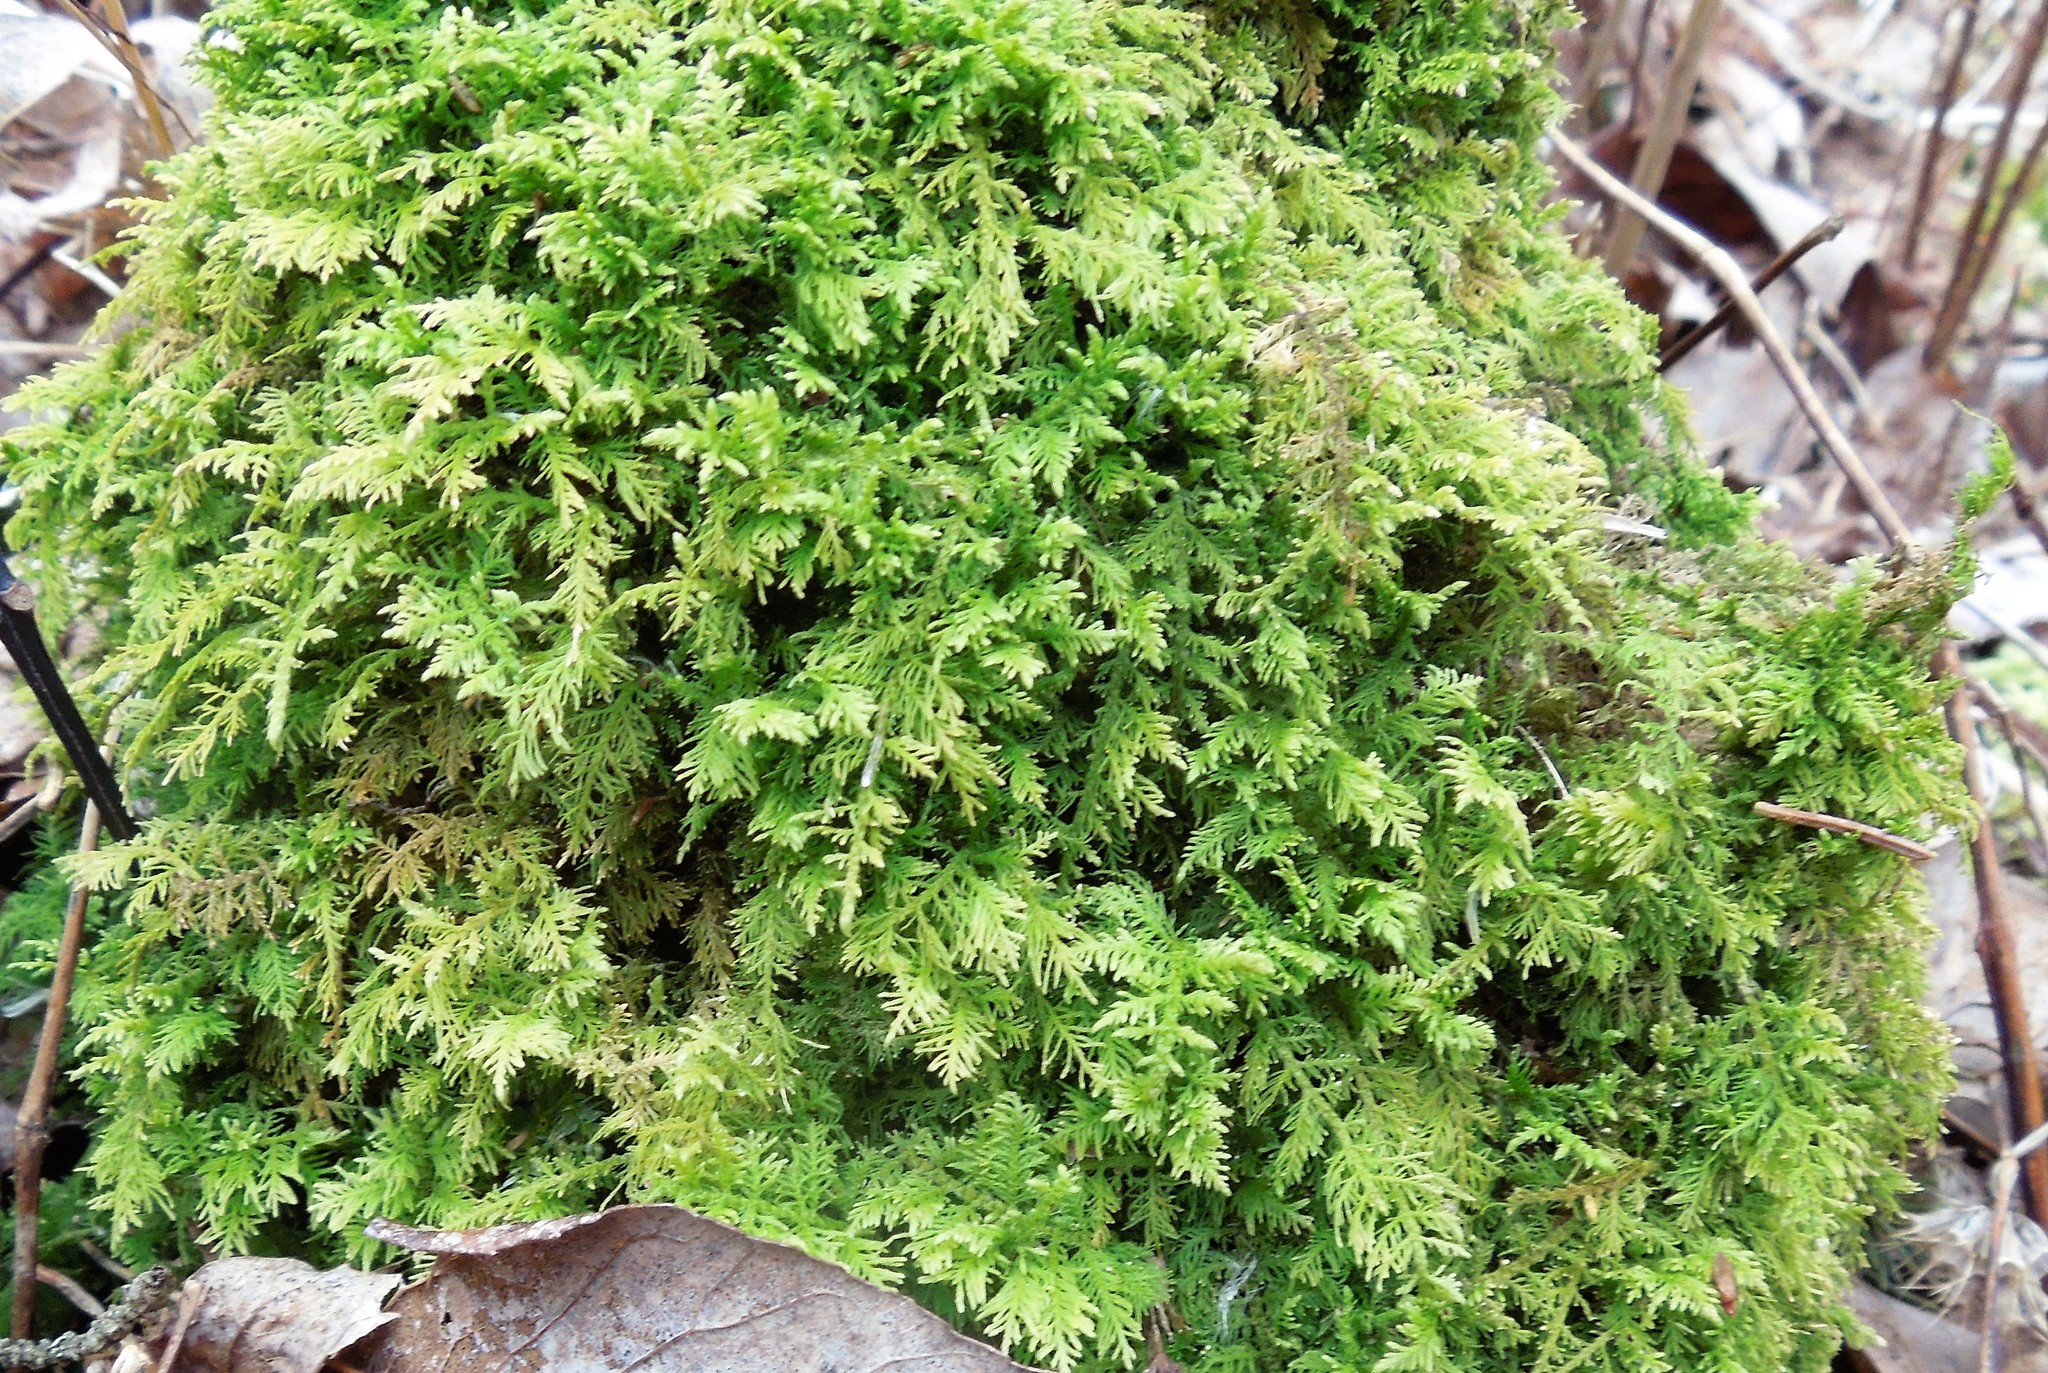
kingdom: Plantae
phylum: Bryophyta
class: Bryopsida
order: Hypnales
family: Thuidiaceae
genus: Thuidium
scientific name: Thuidium delicatulum
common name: Delicate fern moss
